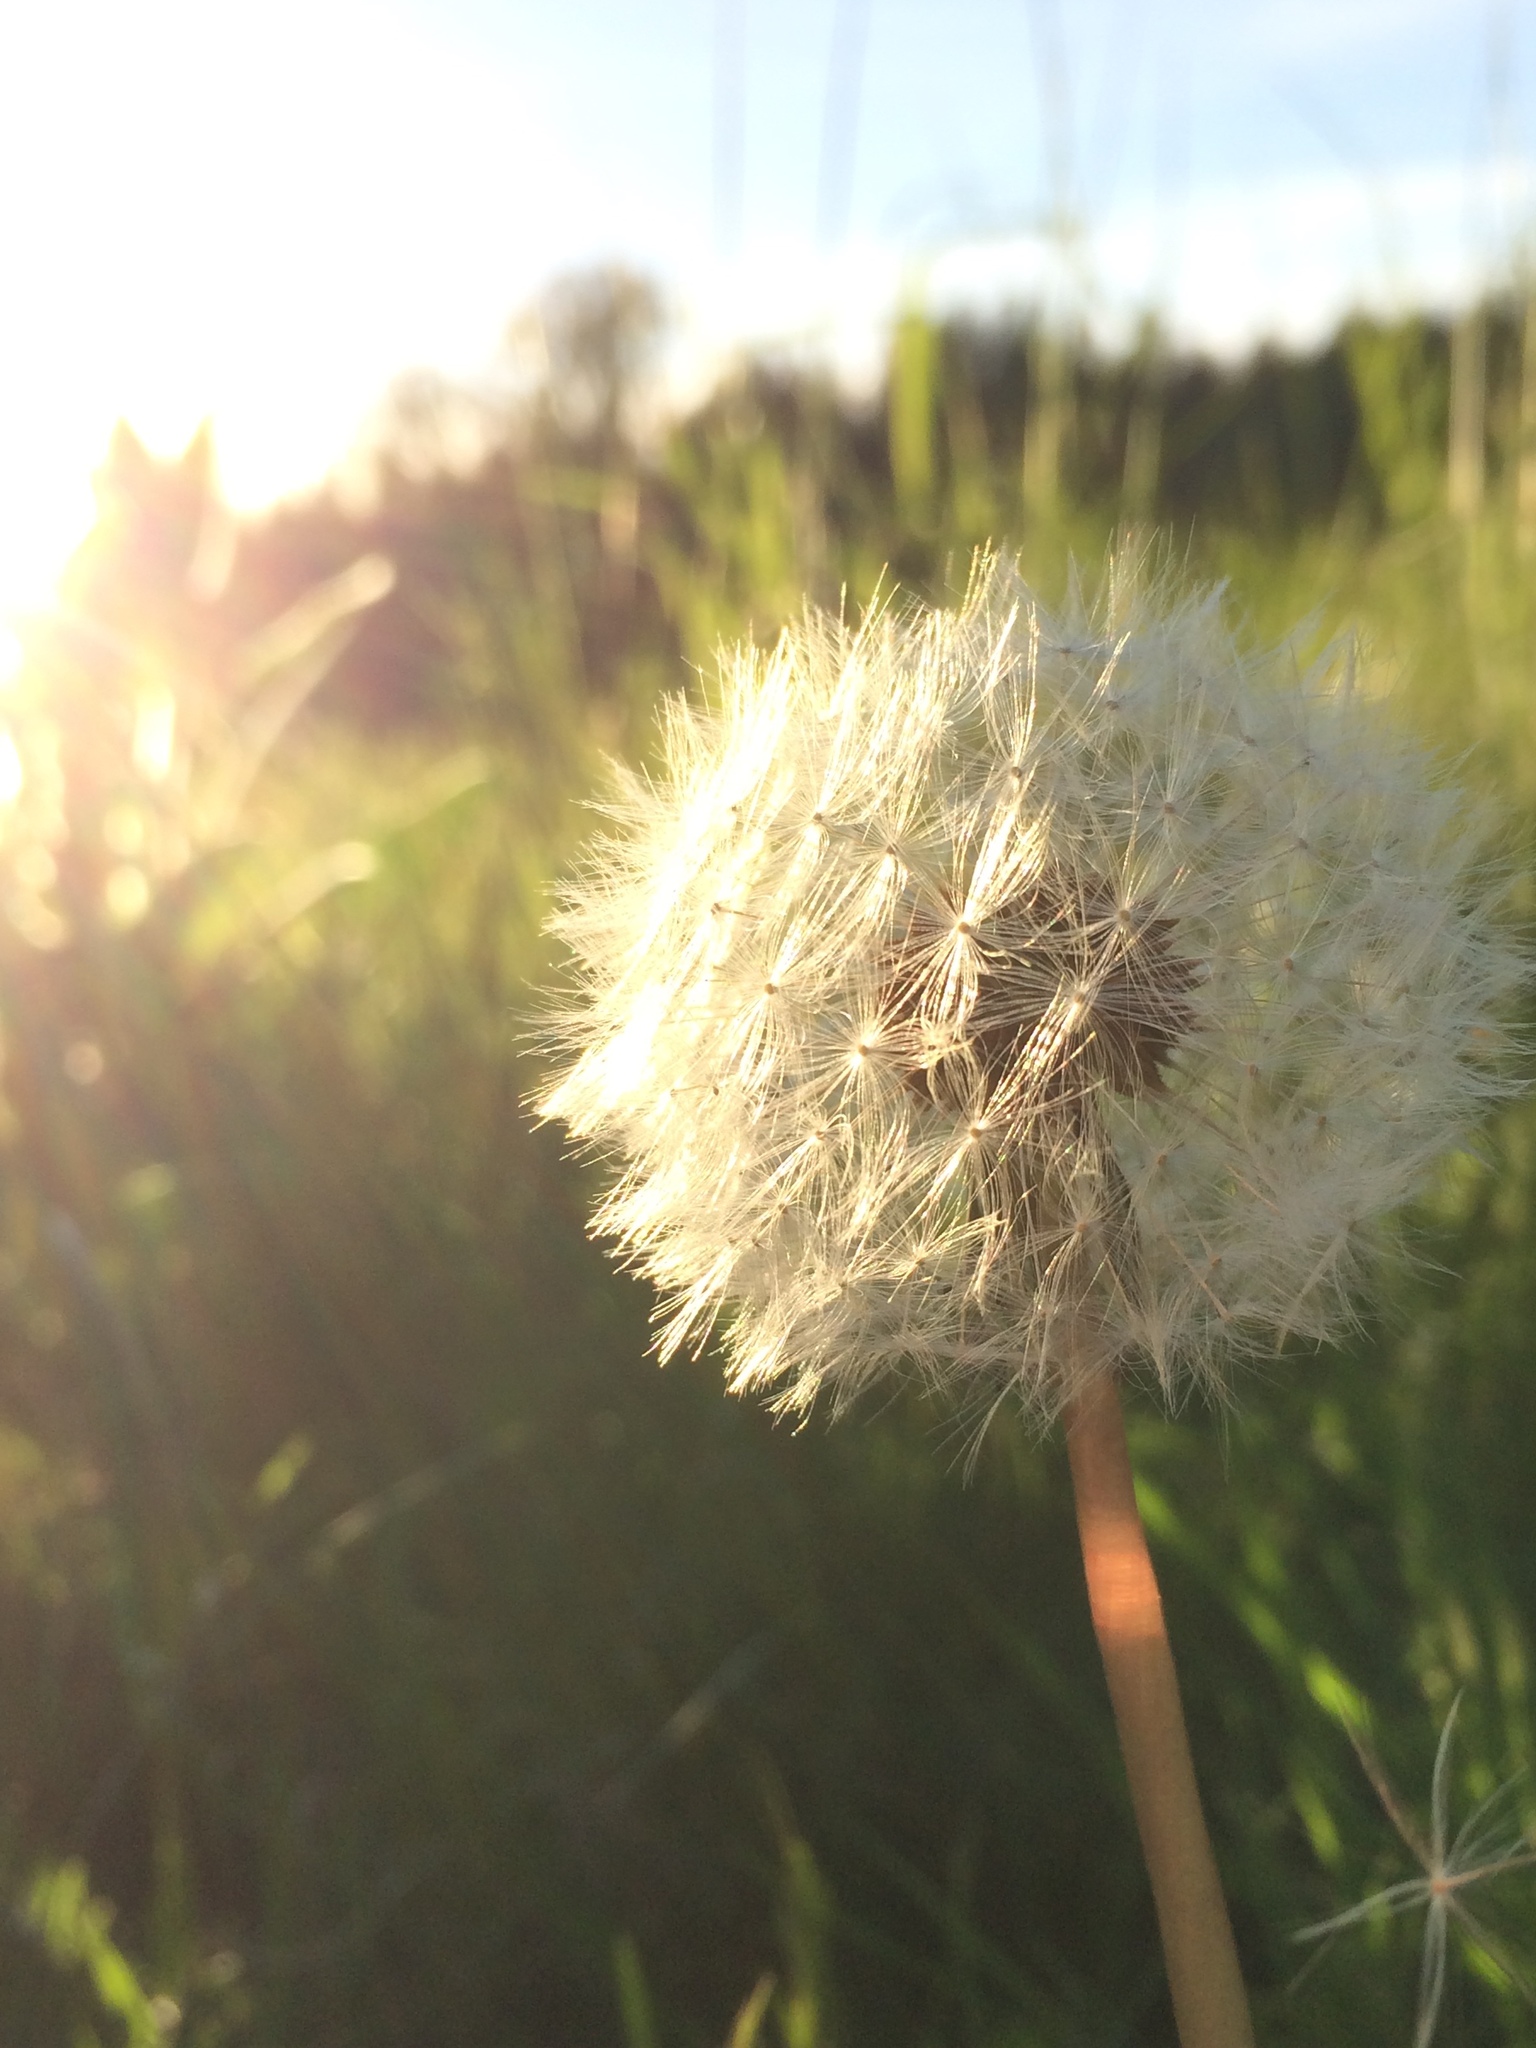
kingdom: Plantae
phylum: Tracheophyta
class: Magnoliopsida
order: Asterales
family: Asteraceae
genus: Taraxacum
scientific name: Taraxacum officinale
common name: Common dandelion
